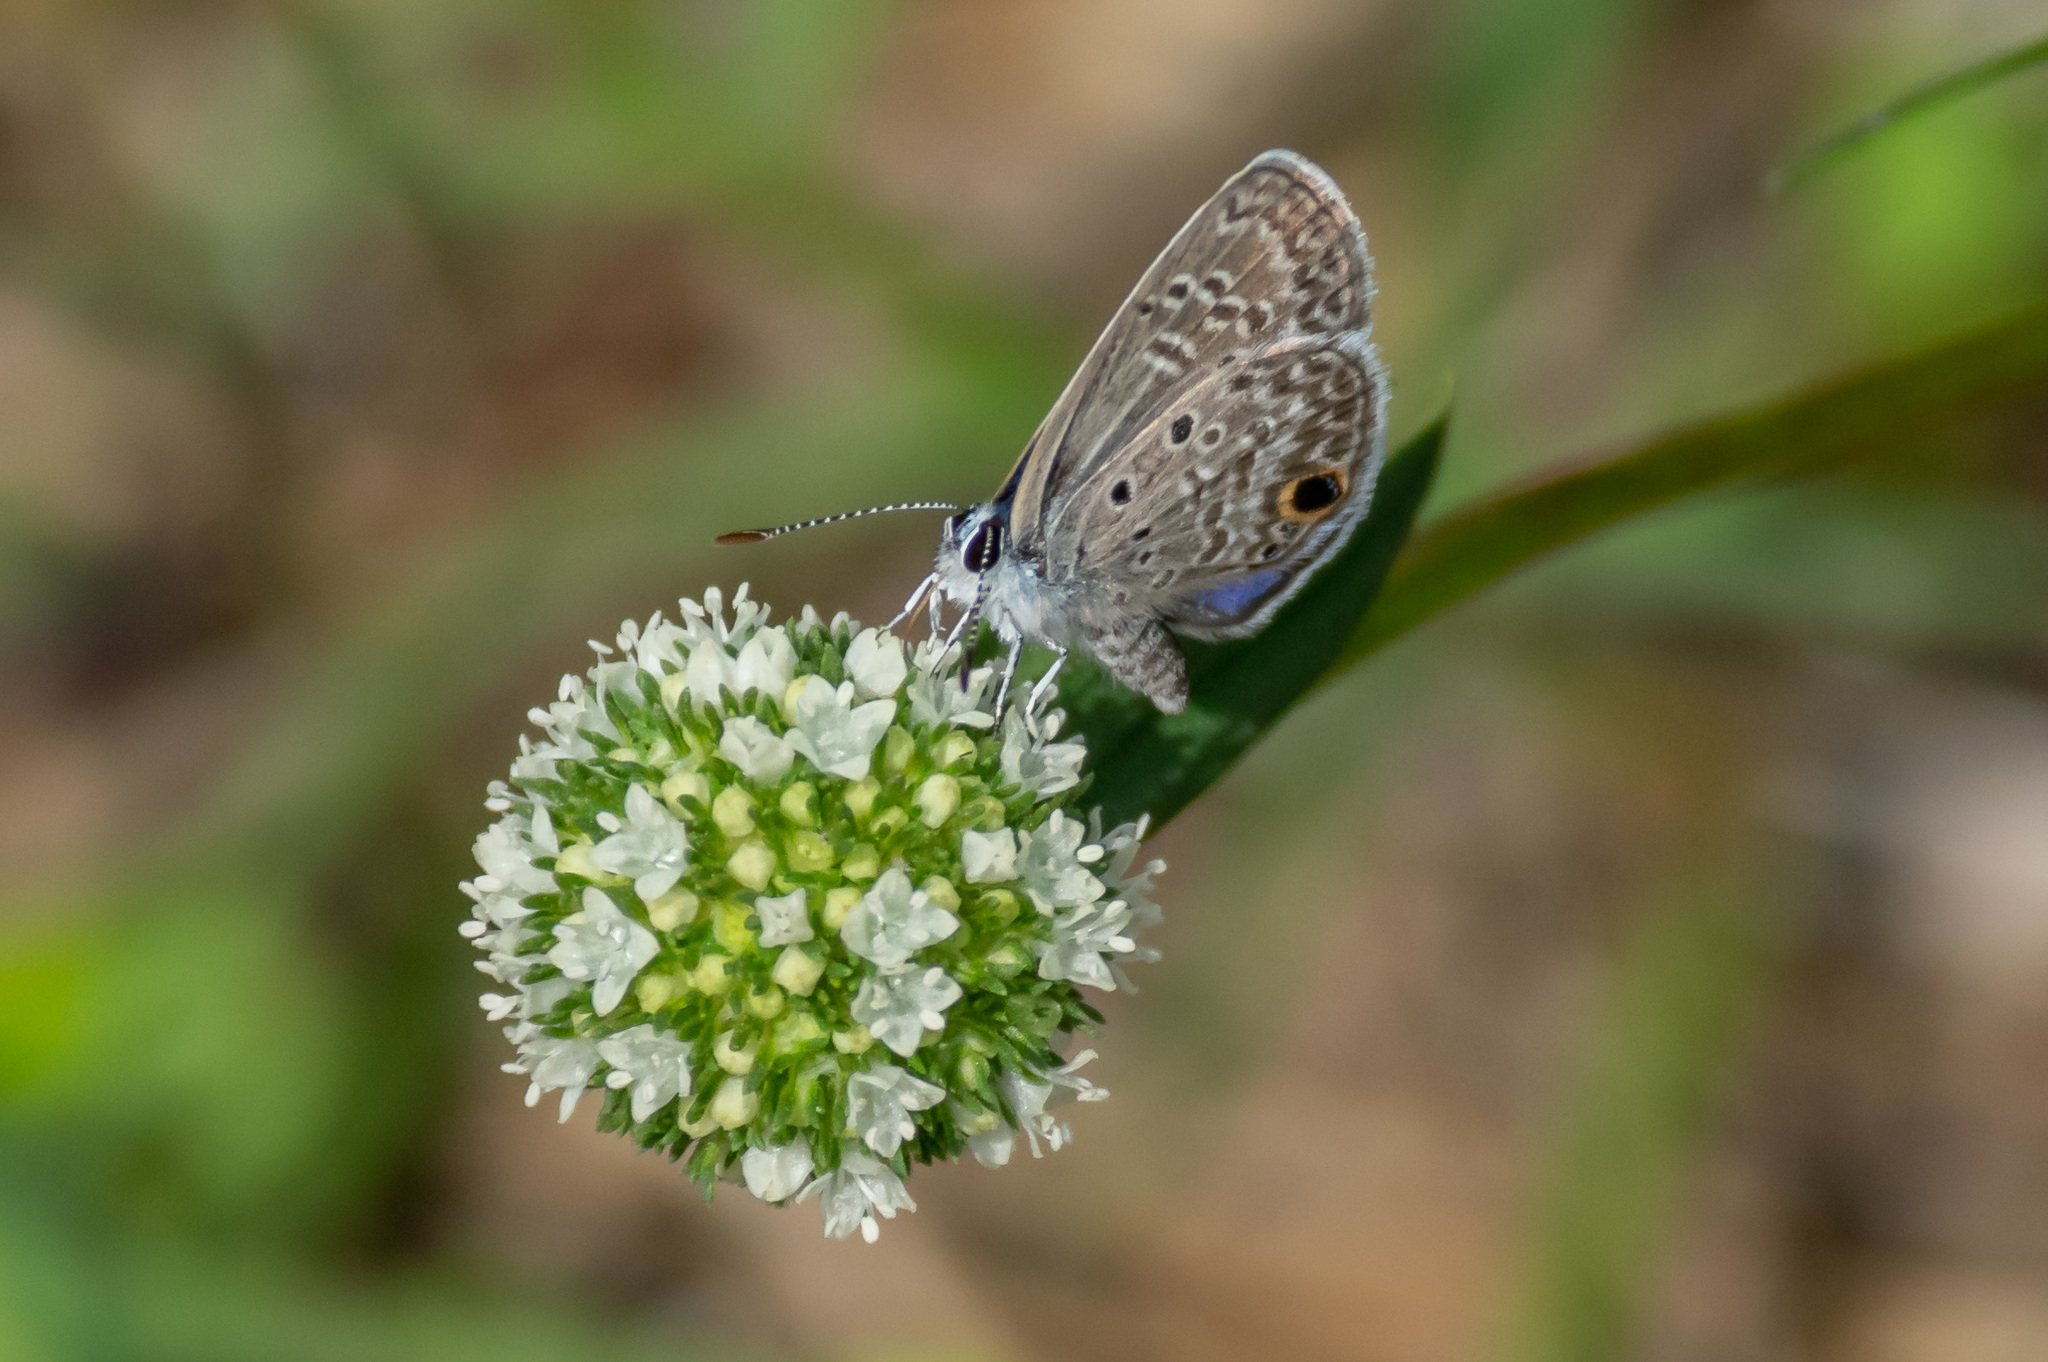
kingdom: Animalia
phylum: Arthropoda
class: Insecta
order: Lepidoptera
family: Lycaenidae
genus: Hemiargus
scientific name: Hemiargus ceraunus
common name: Ceraunus blue
